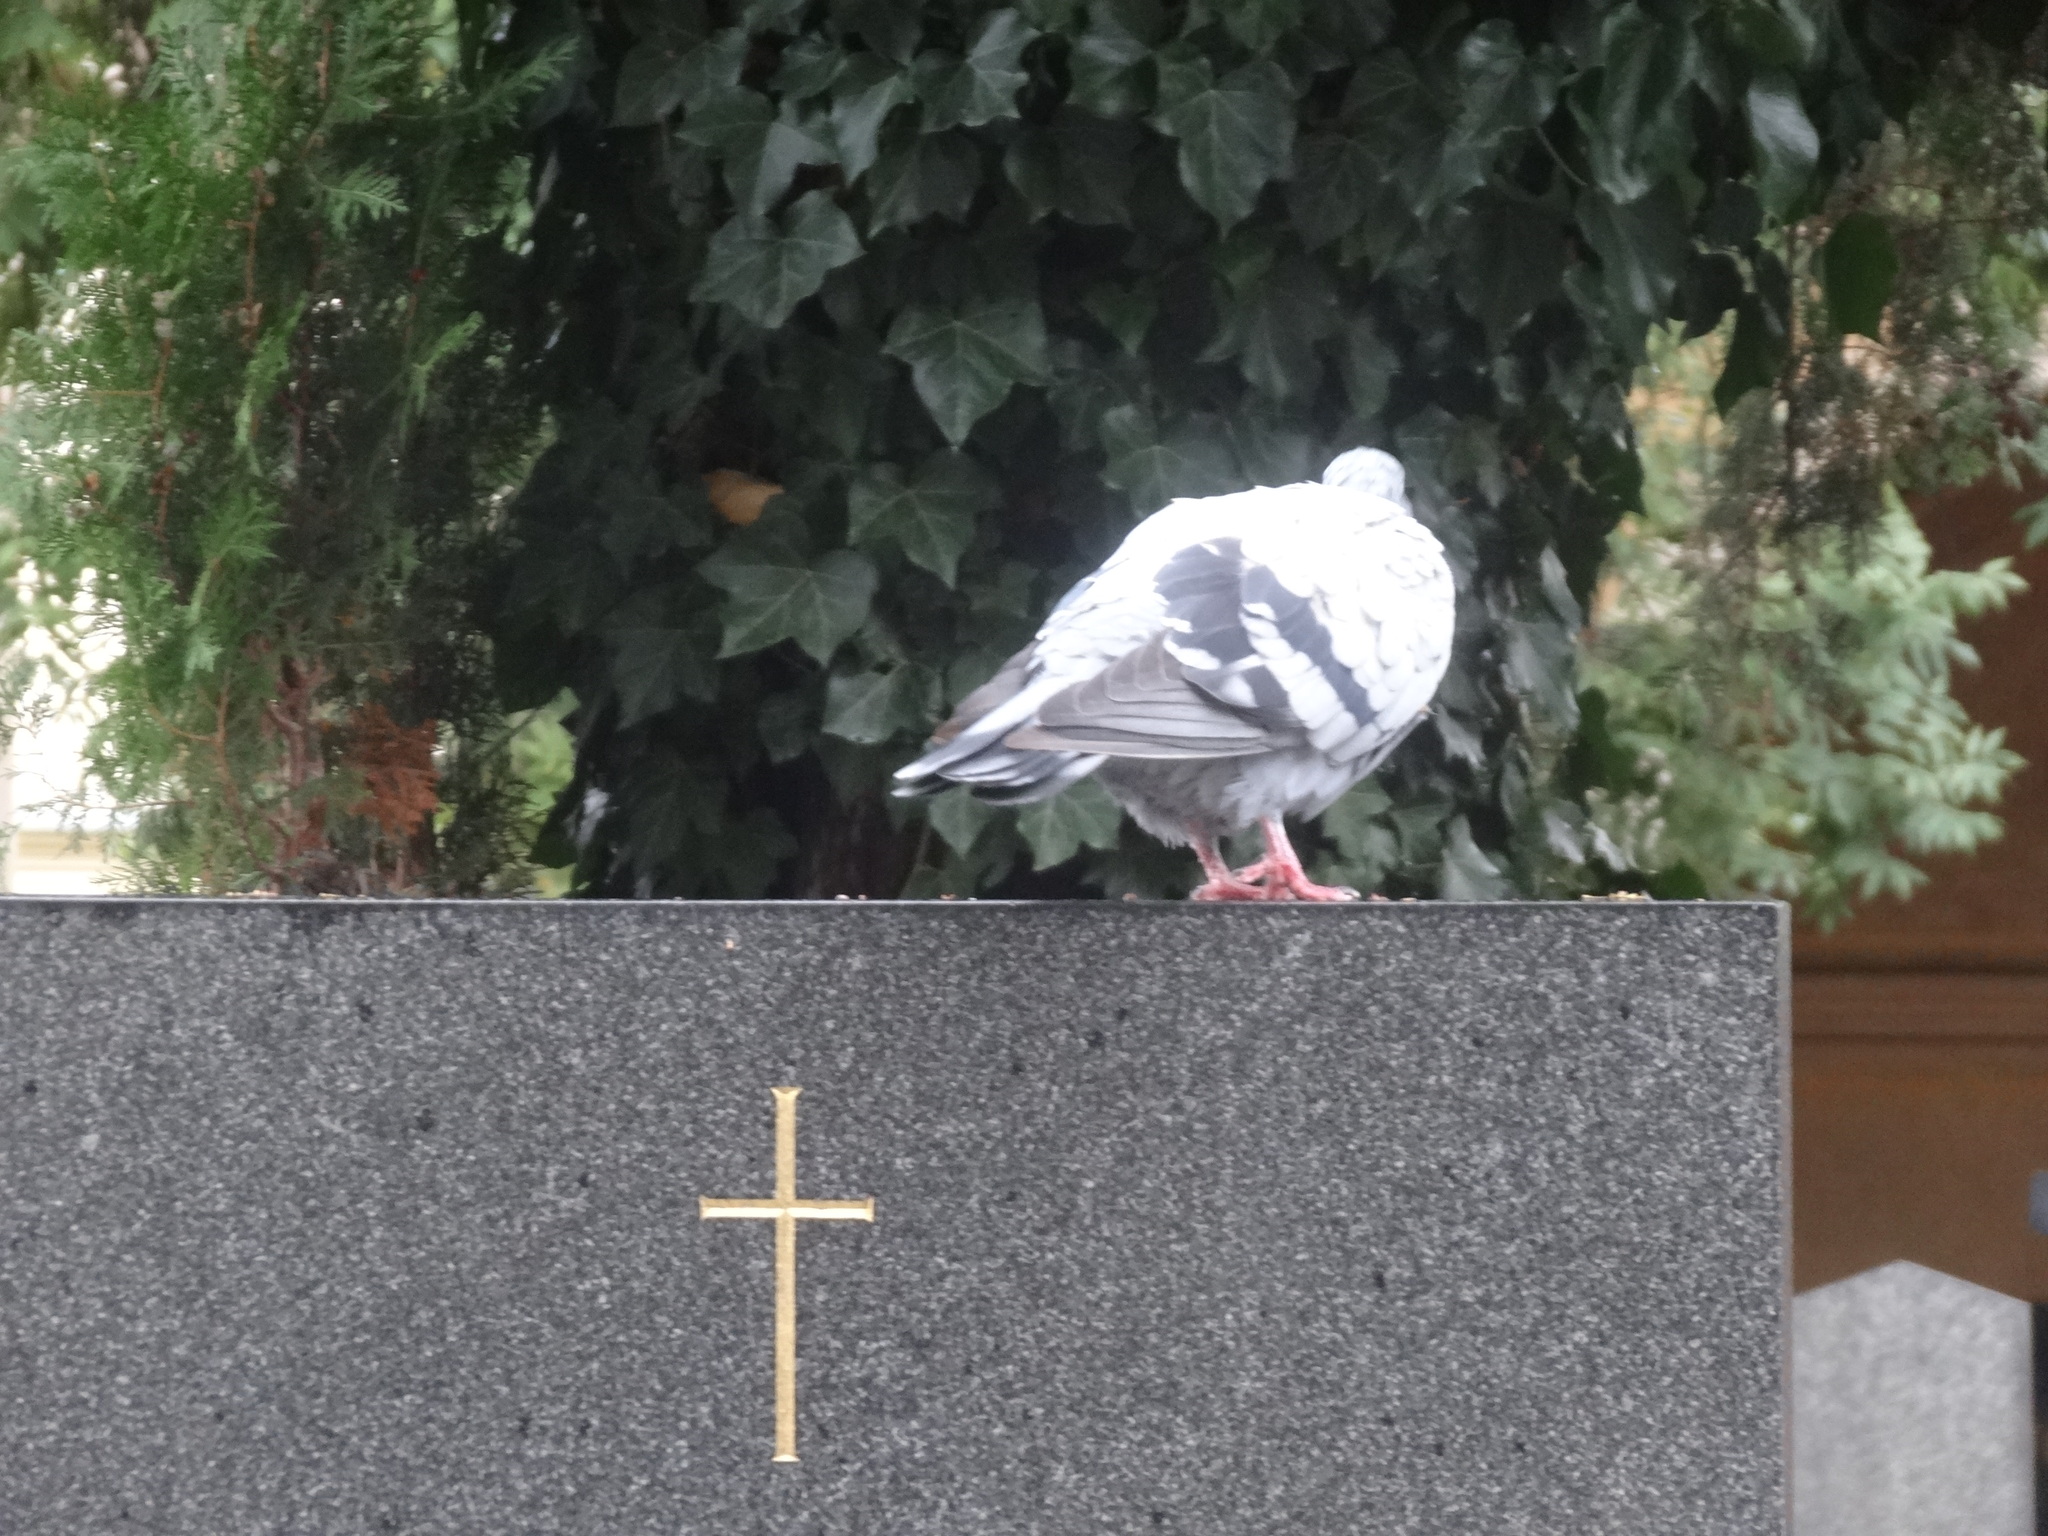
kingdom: Animalia
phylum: Chordata
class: Aves
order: Columbiformes
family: Columbidae
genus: Columba
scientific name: Columba livia
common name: Rock pigeon
